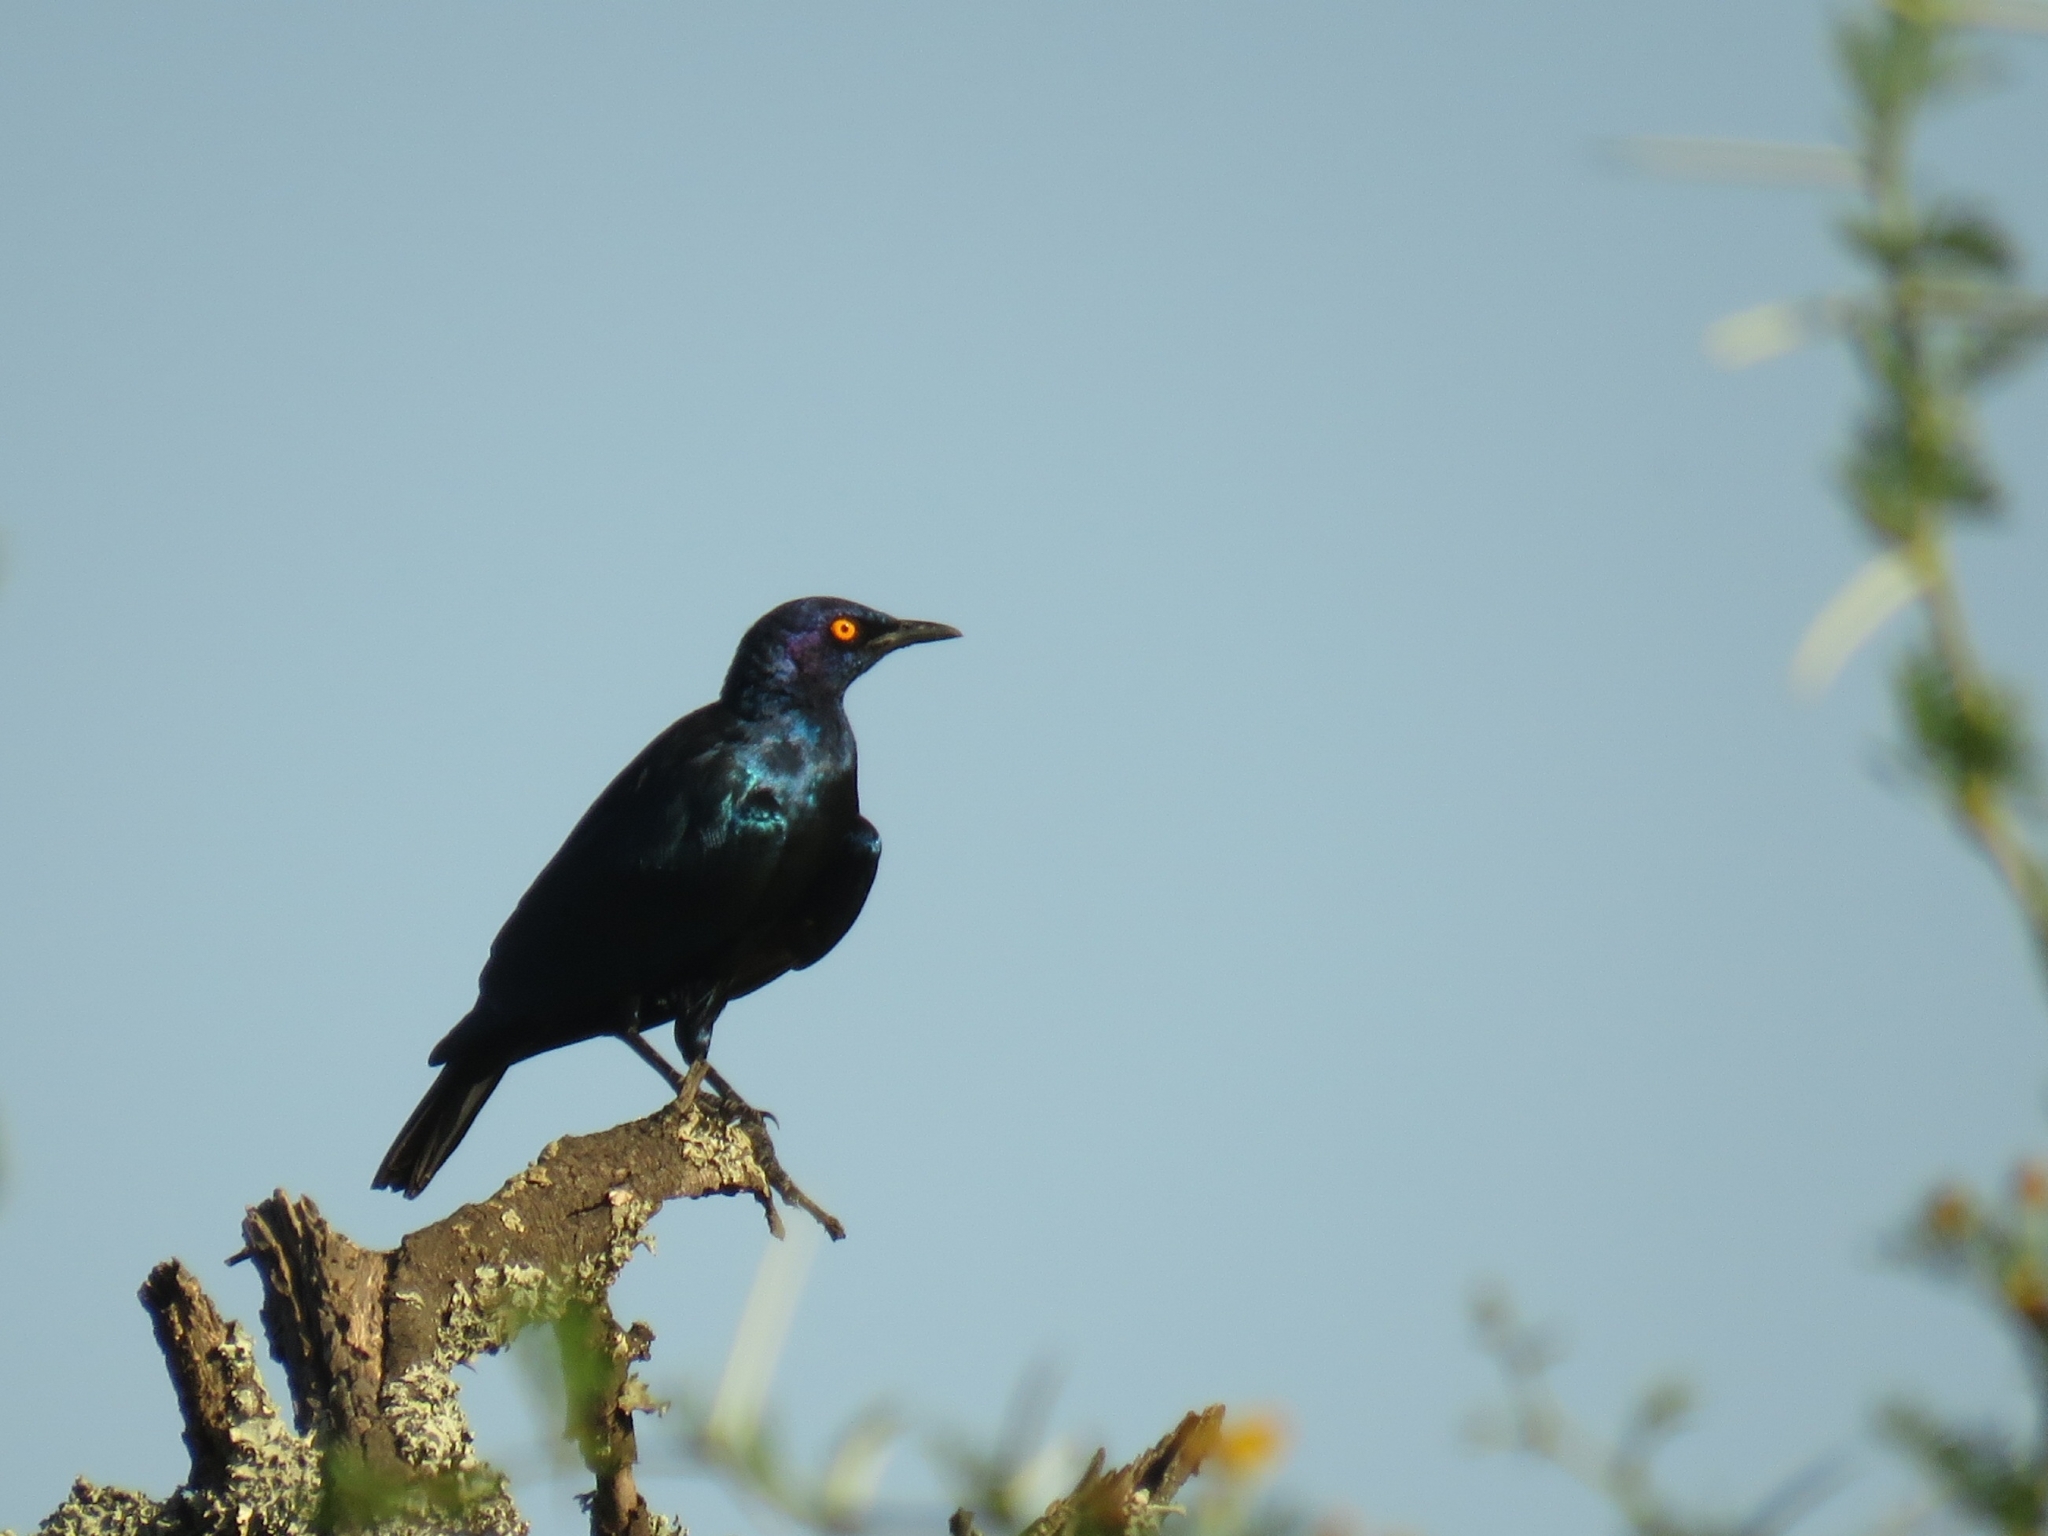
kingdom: Animalia
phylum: Chordata
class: Aves
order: Passeriformes
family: Sturnidae
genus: Lamprotornis
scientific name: Lamprotornis nitens
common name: Cape starling
